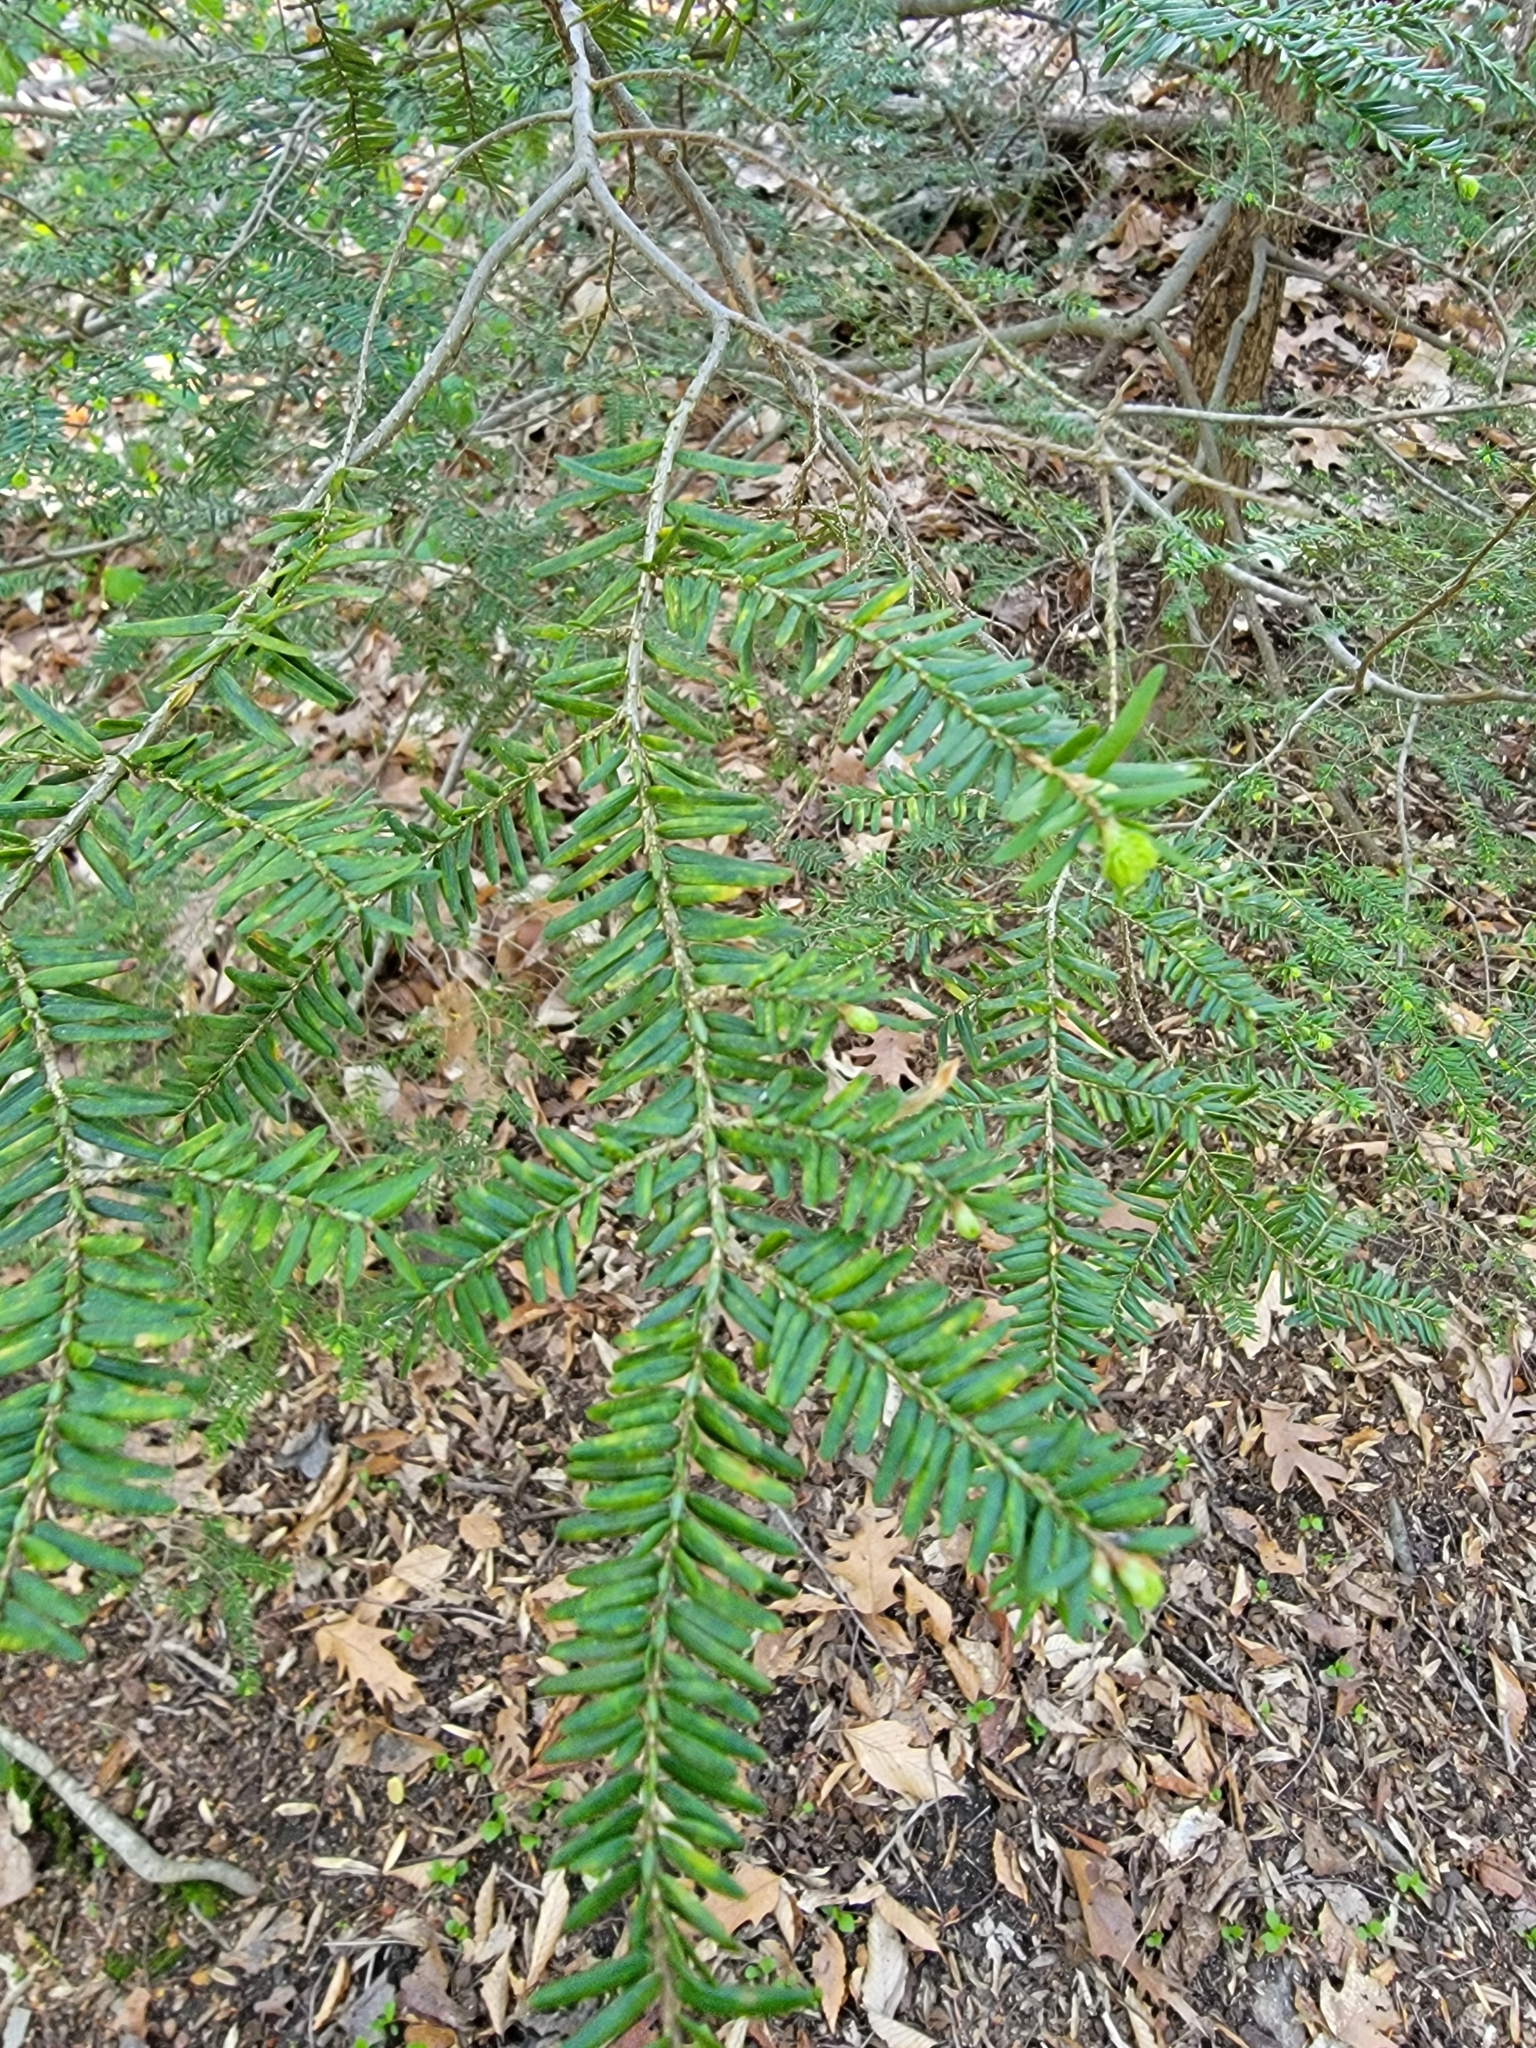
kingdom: Plantae
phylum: Tracheophyta
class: Pinopsida
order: Pinales
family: Pinaceae
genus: Tsuga
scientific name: Tsuga canadensis
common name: Eastern hemlock
